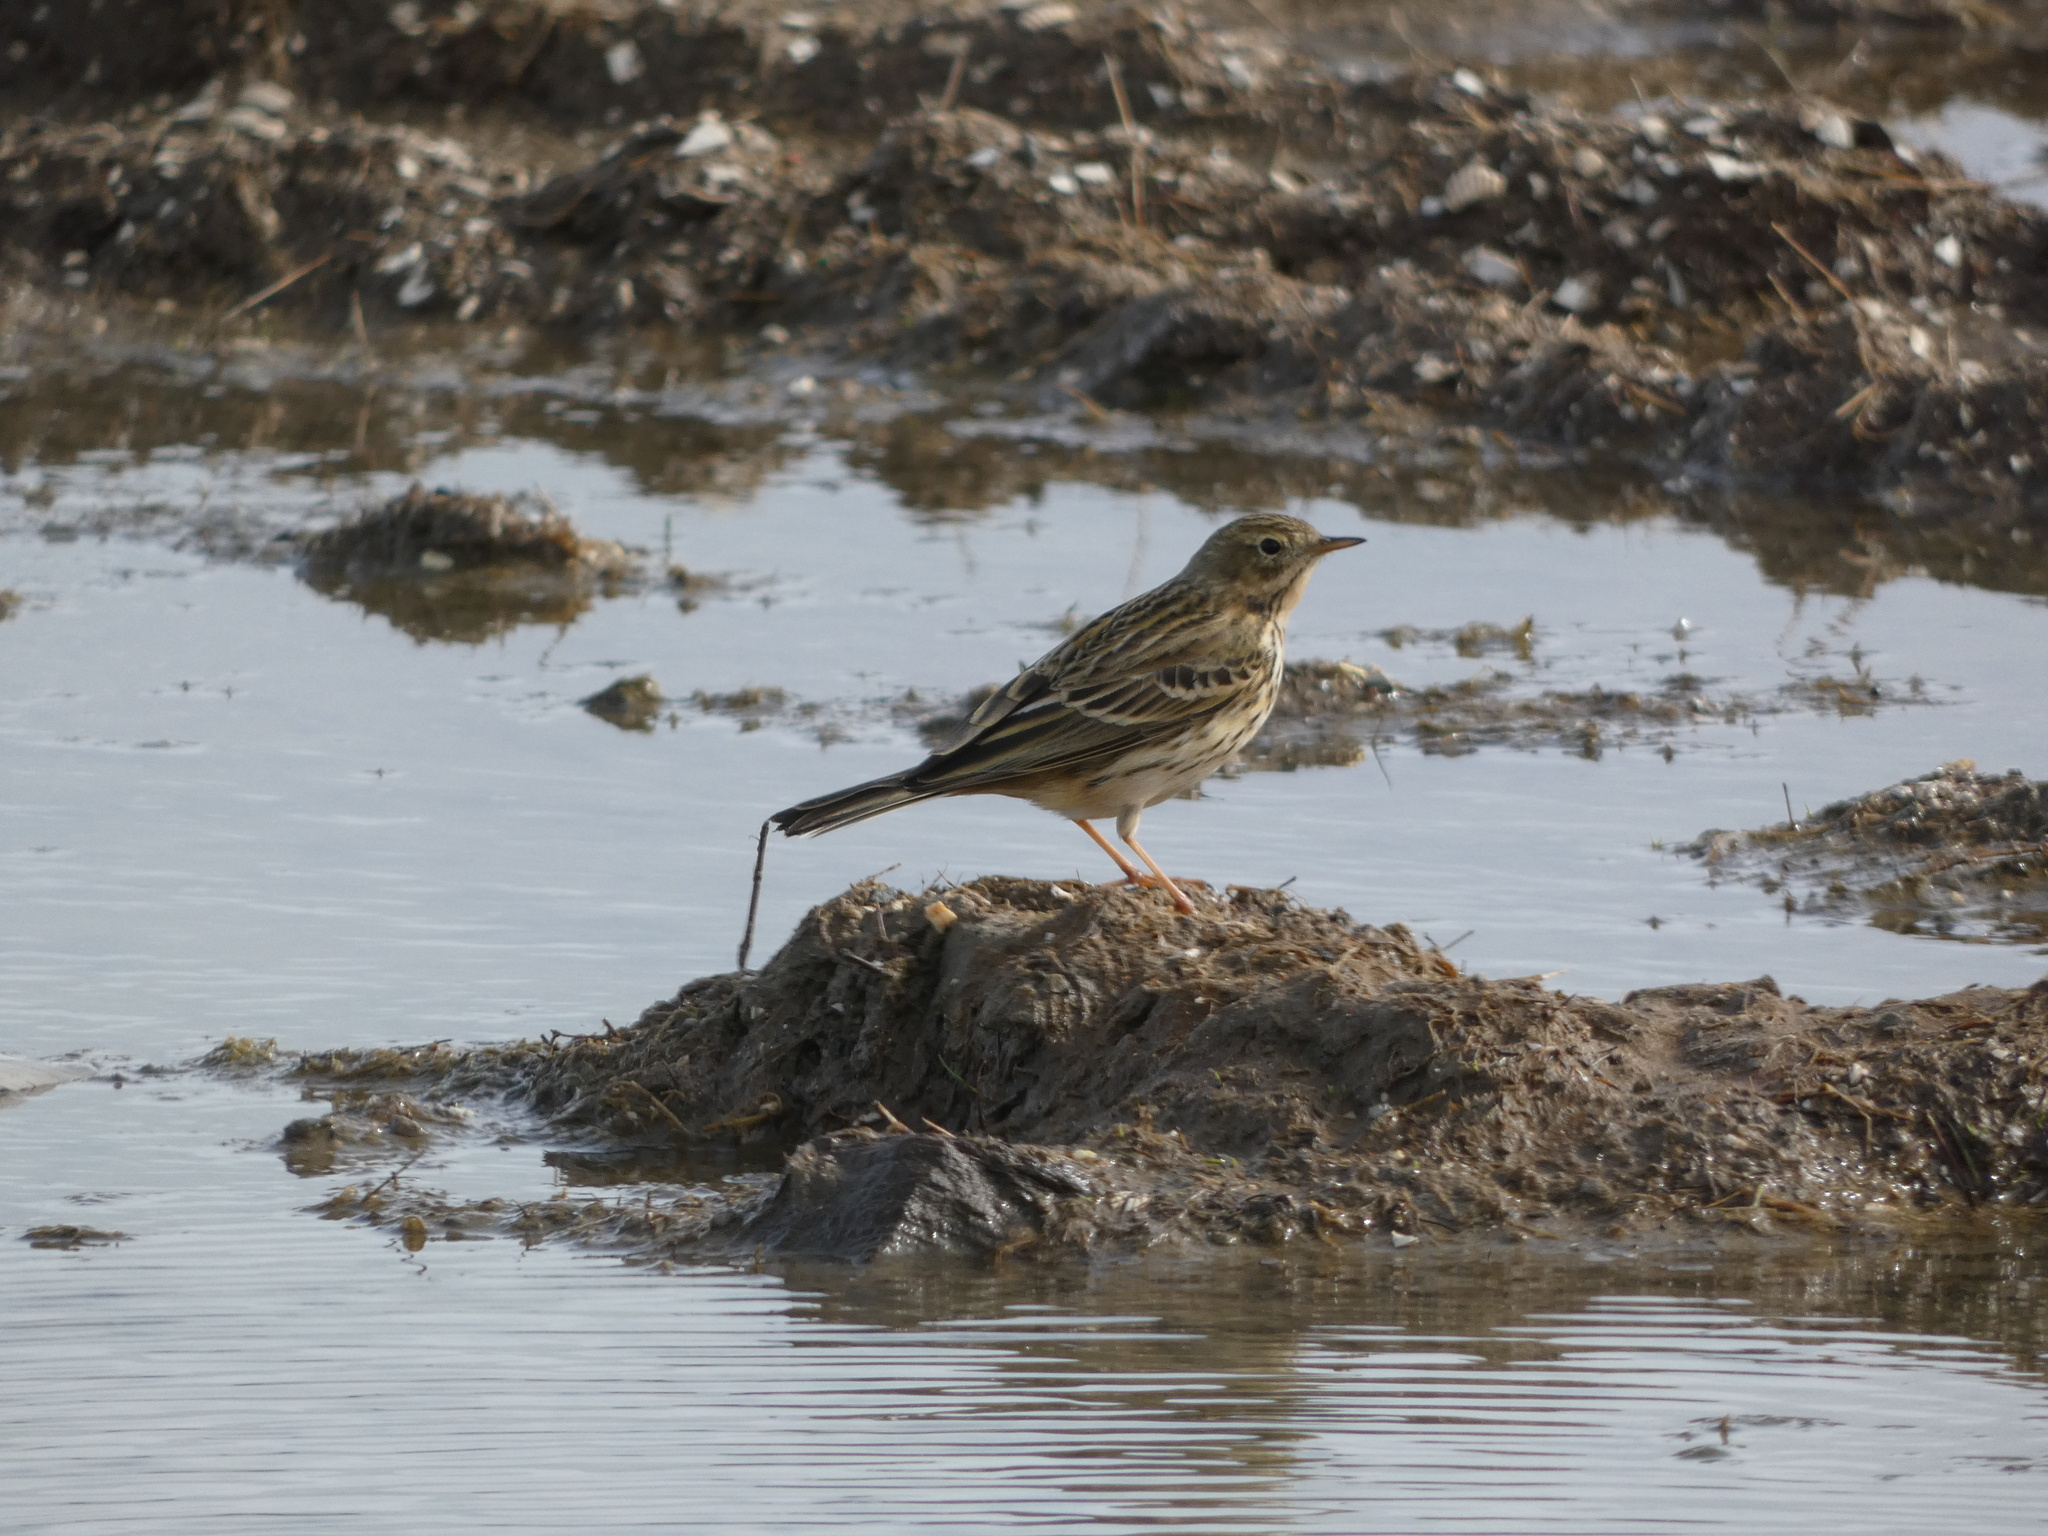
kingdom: Animalia
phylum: Chordata
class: Aves
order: Passeriformes
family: Motacillidae
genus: Anthus
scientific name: Anthus pratensis
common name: Meadow pipit
